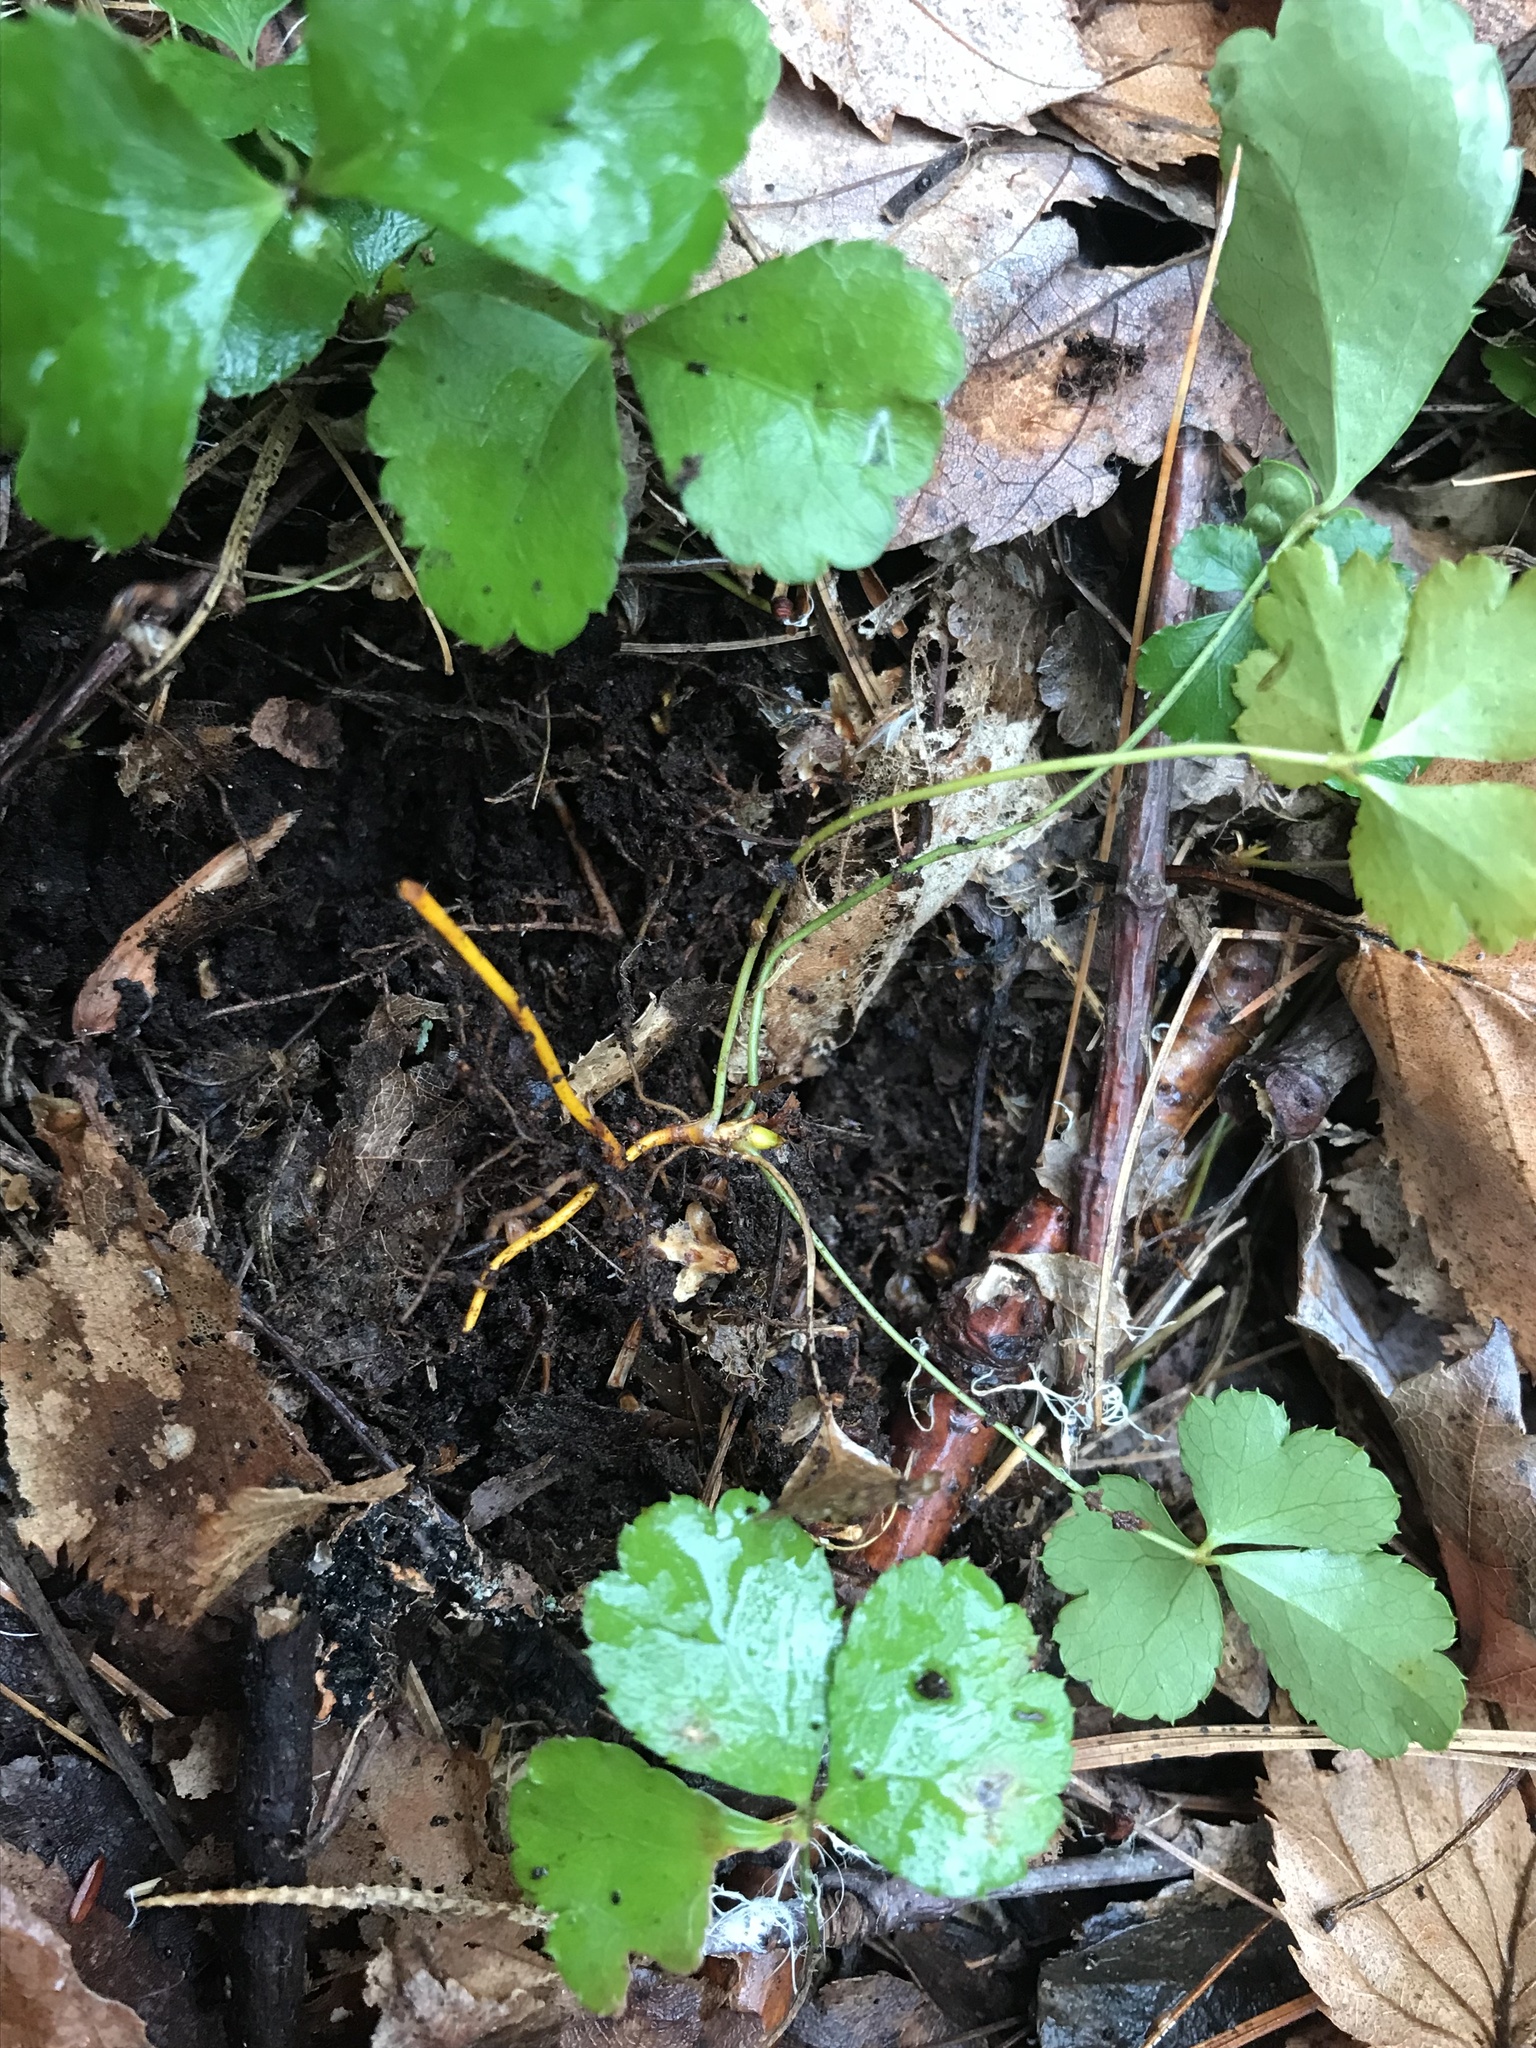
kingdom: Plantae
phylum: Tracheophyta
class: Magnoliopsida
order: Ranunculales
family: Ranunculaceae
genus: Coptis
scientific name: Coptis trifolia
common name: Canker-root
